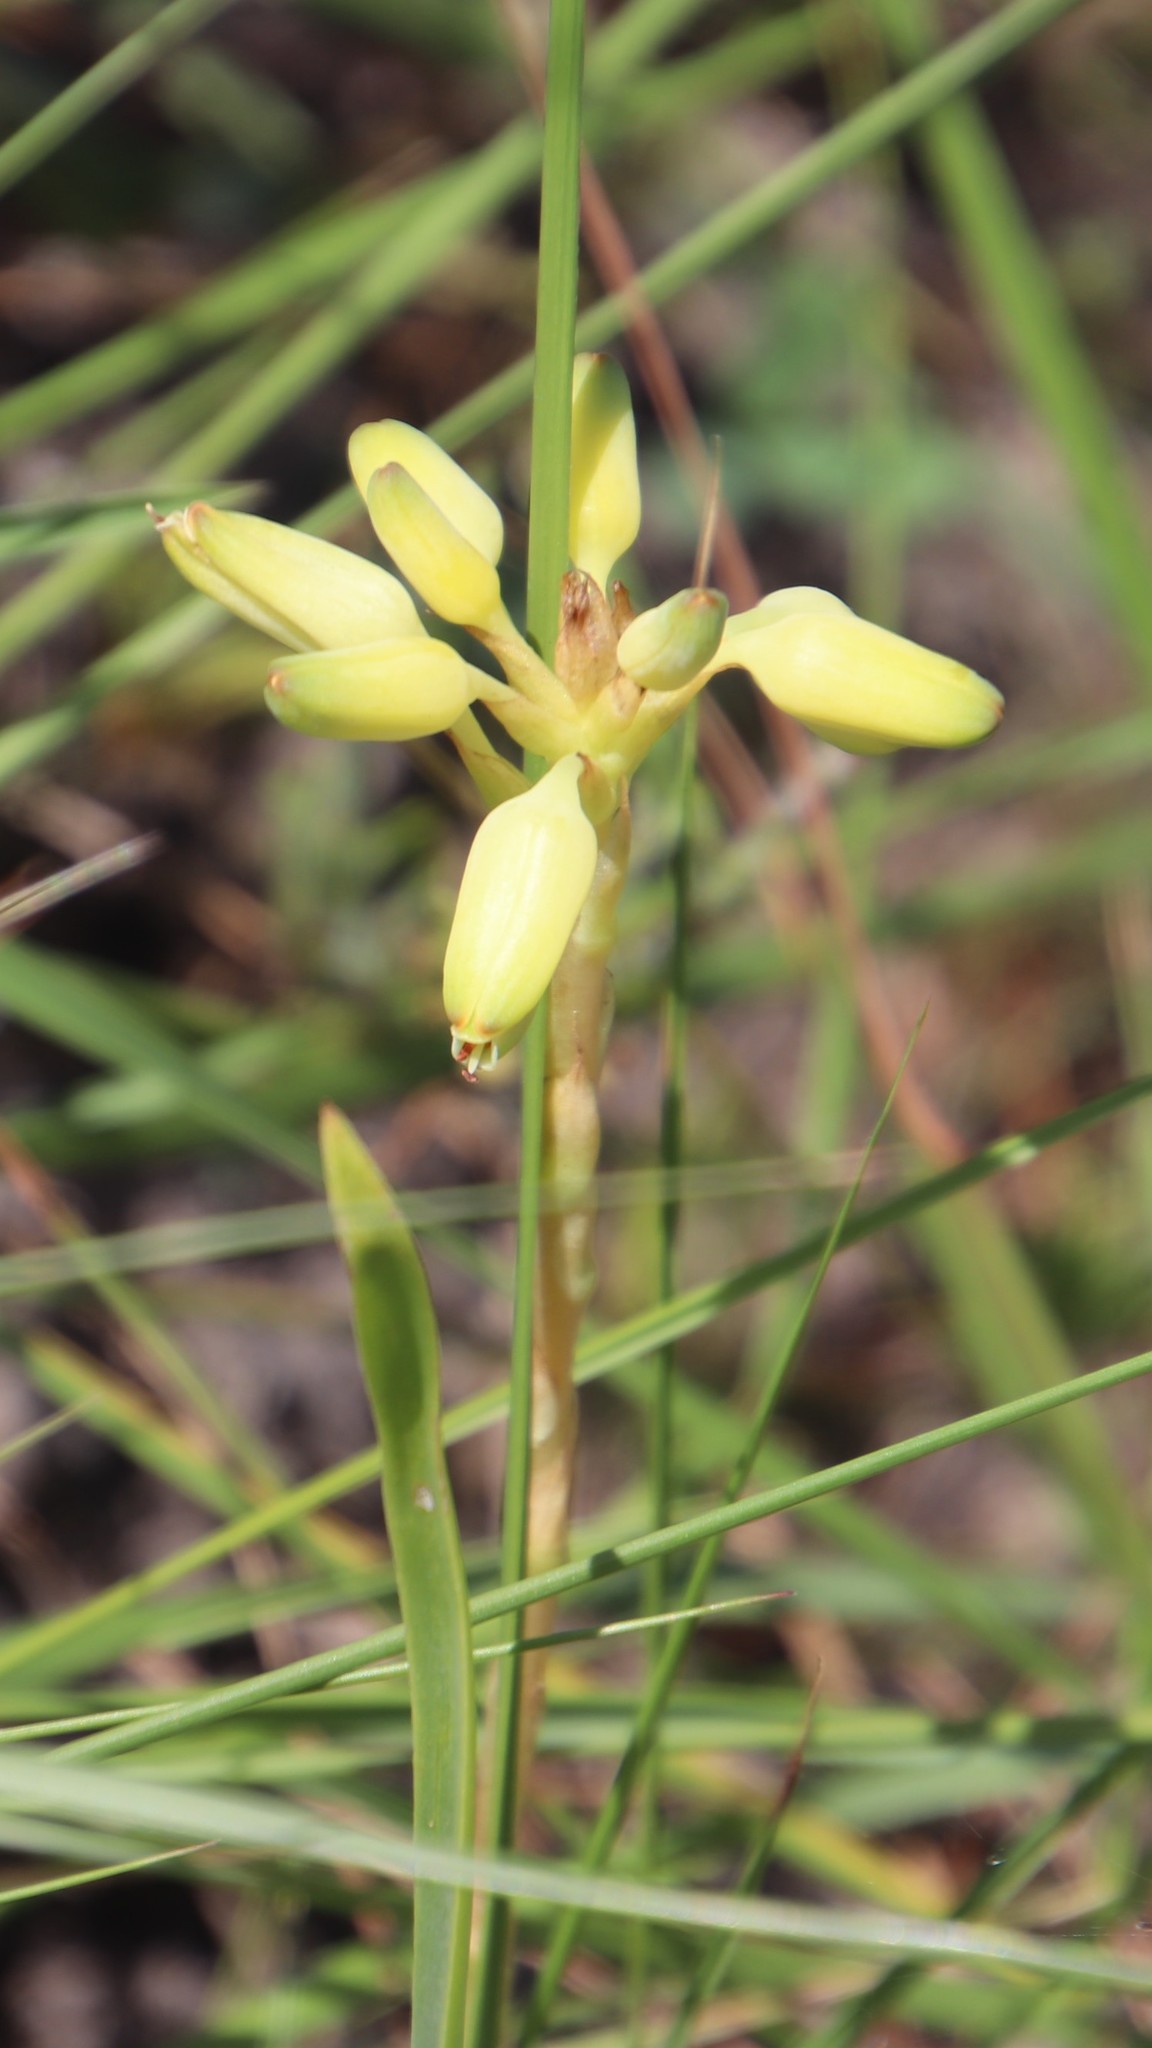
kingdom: Plantae
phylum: Tracheophyta
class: Liliopsida
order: Asparagales
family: Asphodelaceae
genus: Aloe
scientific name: Aloe linearifolia
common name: Dwarf yellow grass aloe
